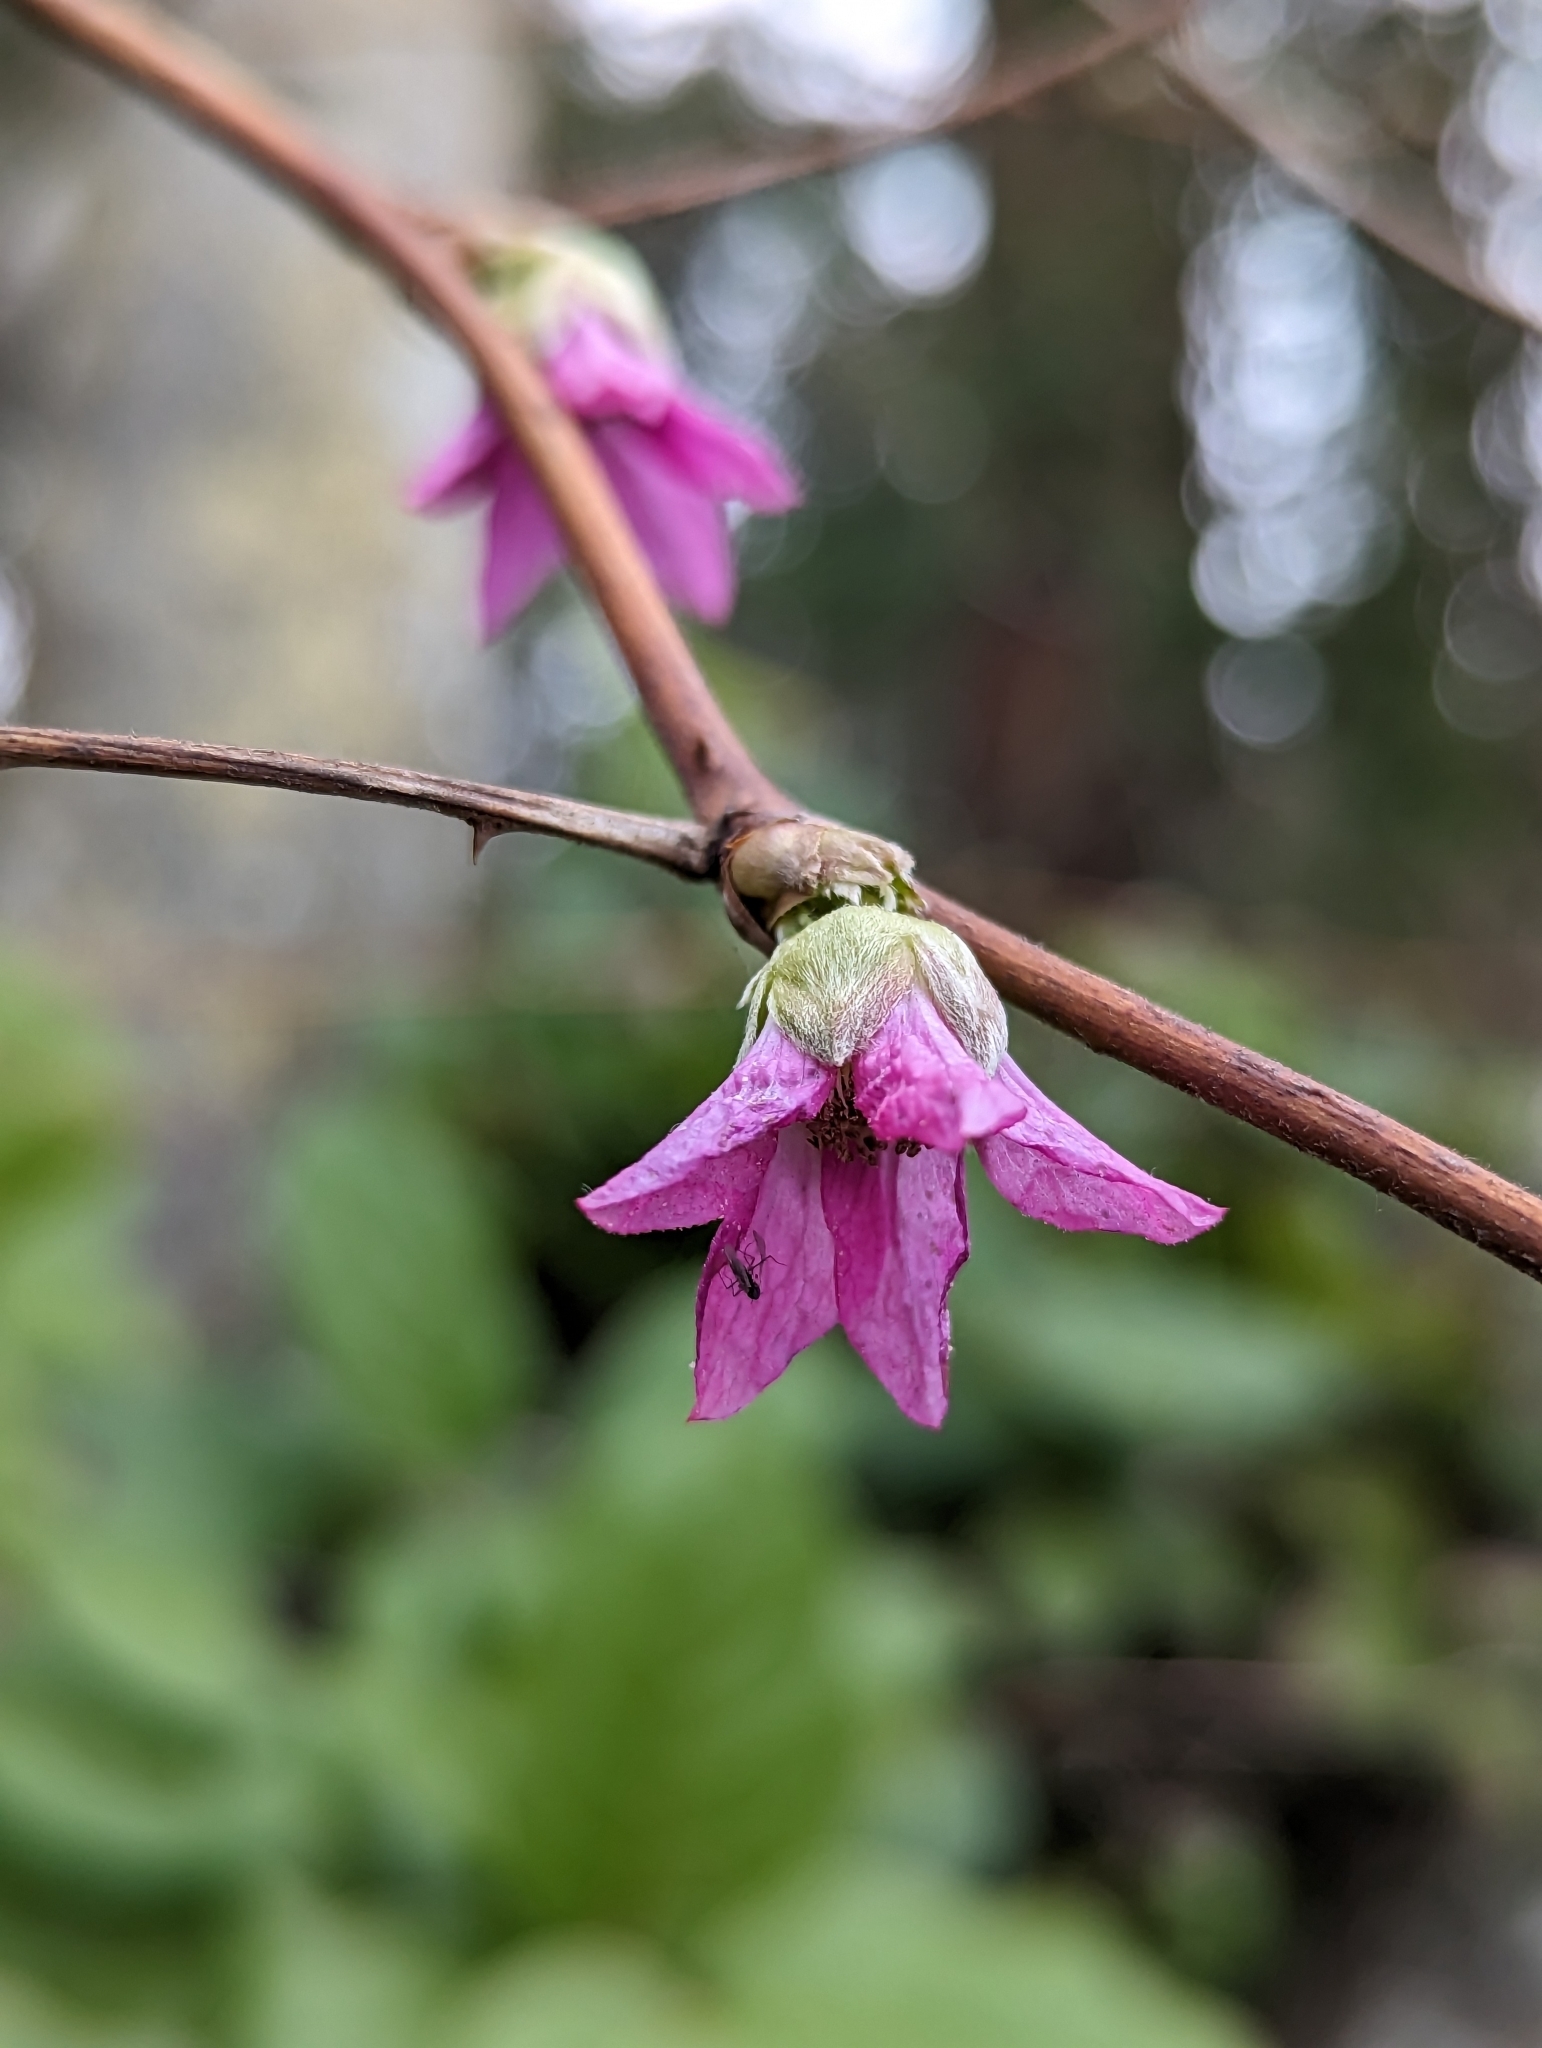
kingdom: Plantae
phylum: Tracheophyta
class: Magnoliopsida
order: Rosales
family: Rosaceae
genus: Rubus
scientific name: Rubus spectabilis
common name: Salmonberry
